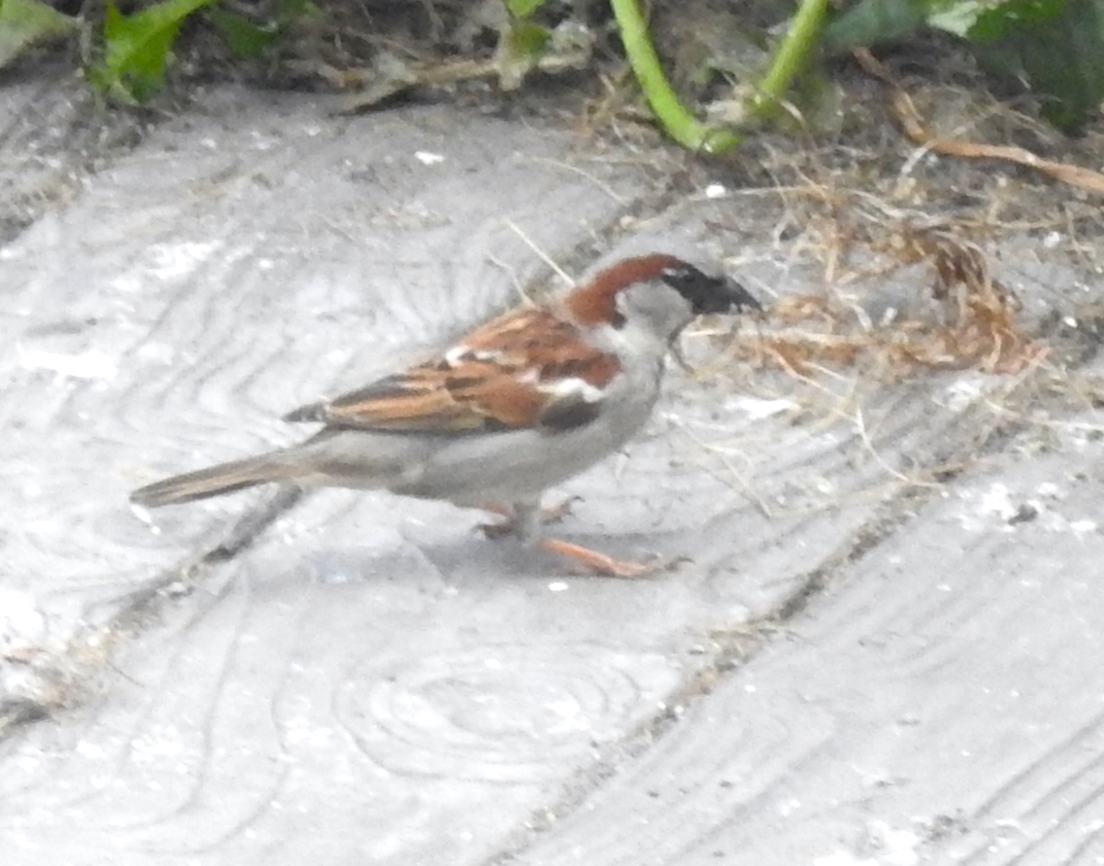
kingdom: Animalia
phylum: Chordata
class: Aves
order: Passeriformes
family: Passeridae
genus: Passer
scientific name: Passer domesticus
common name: House sparrow
